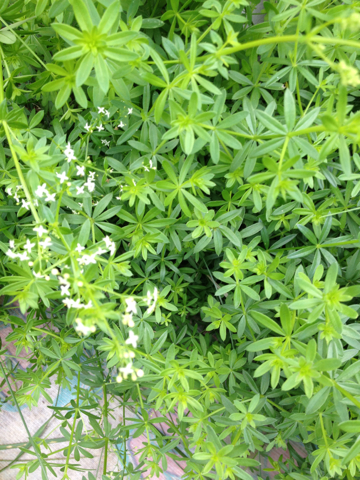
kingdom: Plantae
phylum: Tracheophyta
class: Magnoliopsida
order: Gentianales
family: Rubiaceae
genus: Galium
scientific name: Galium mollugo
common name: Hedge bedstraw
